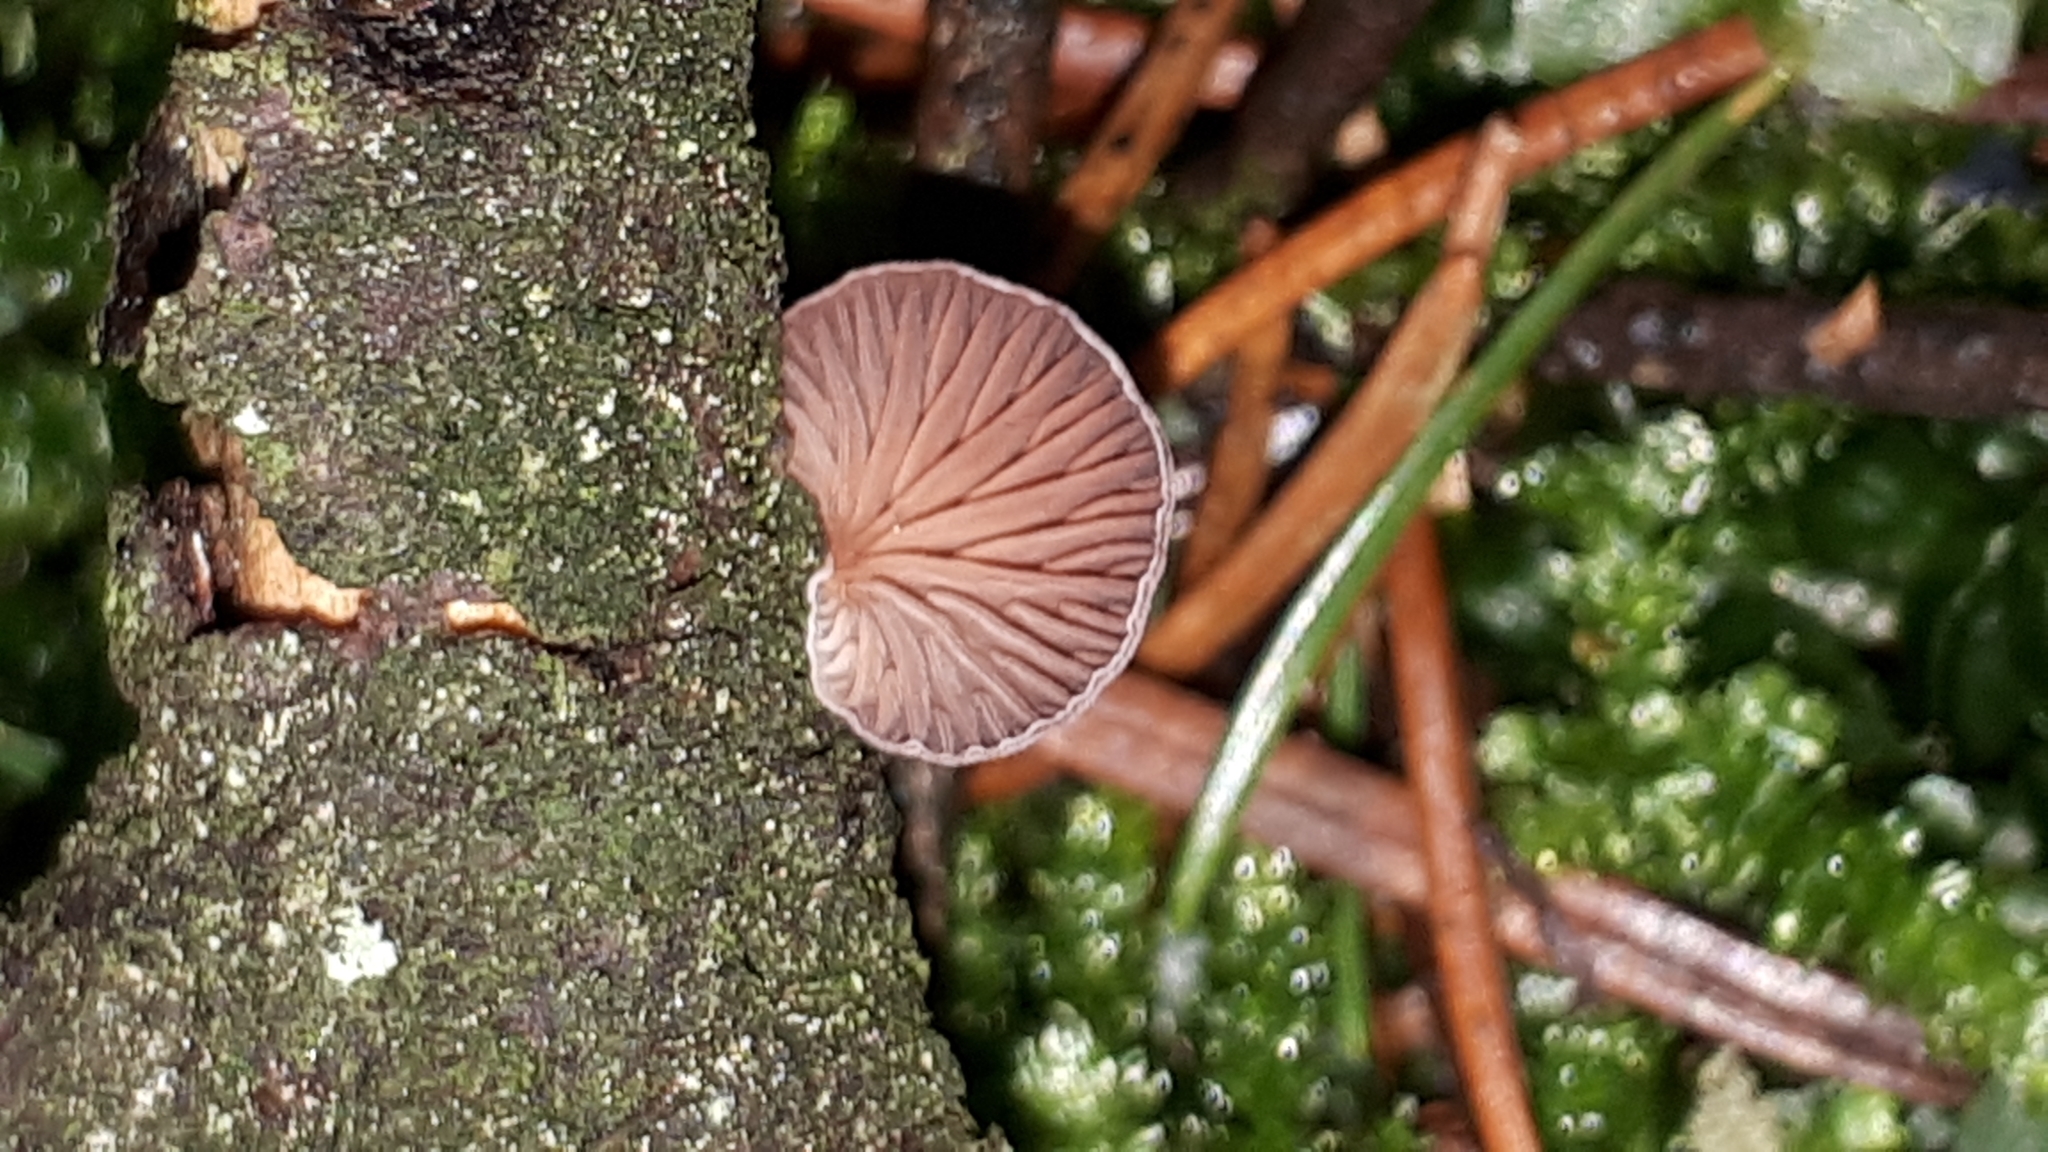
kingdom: Fungi
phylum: Basidiomycota
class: Agaricomycetes
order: Agaricales
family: Mycenaceae
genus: Panellus
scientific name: Panellus violaceofulvus
